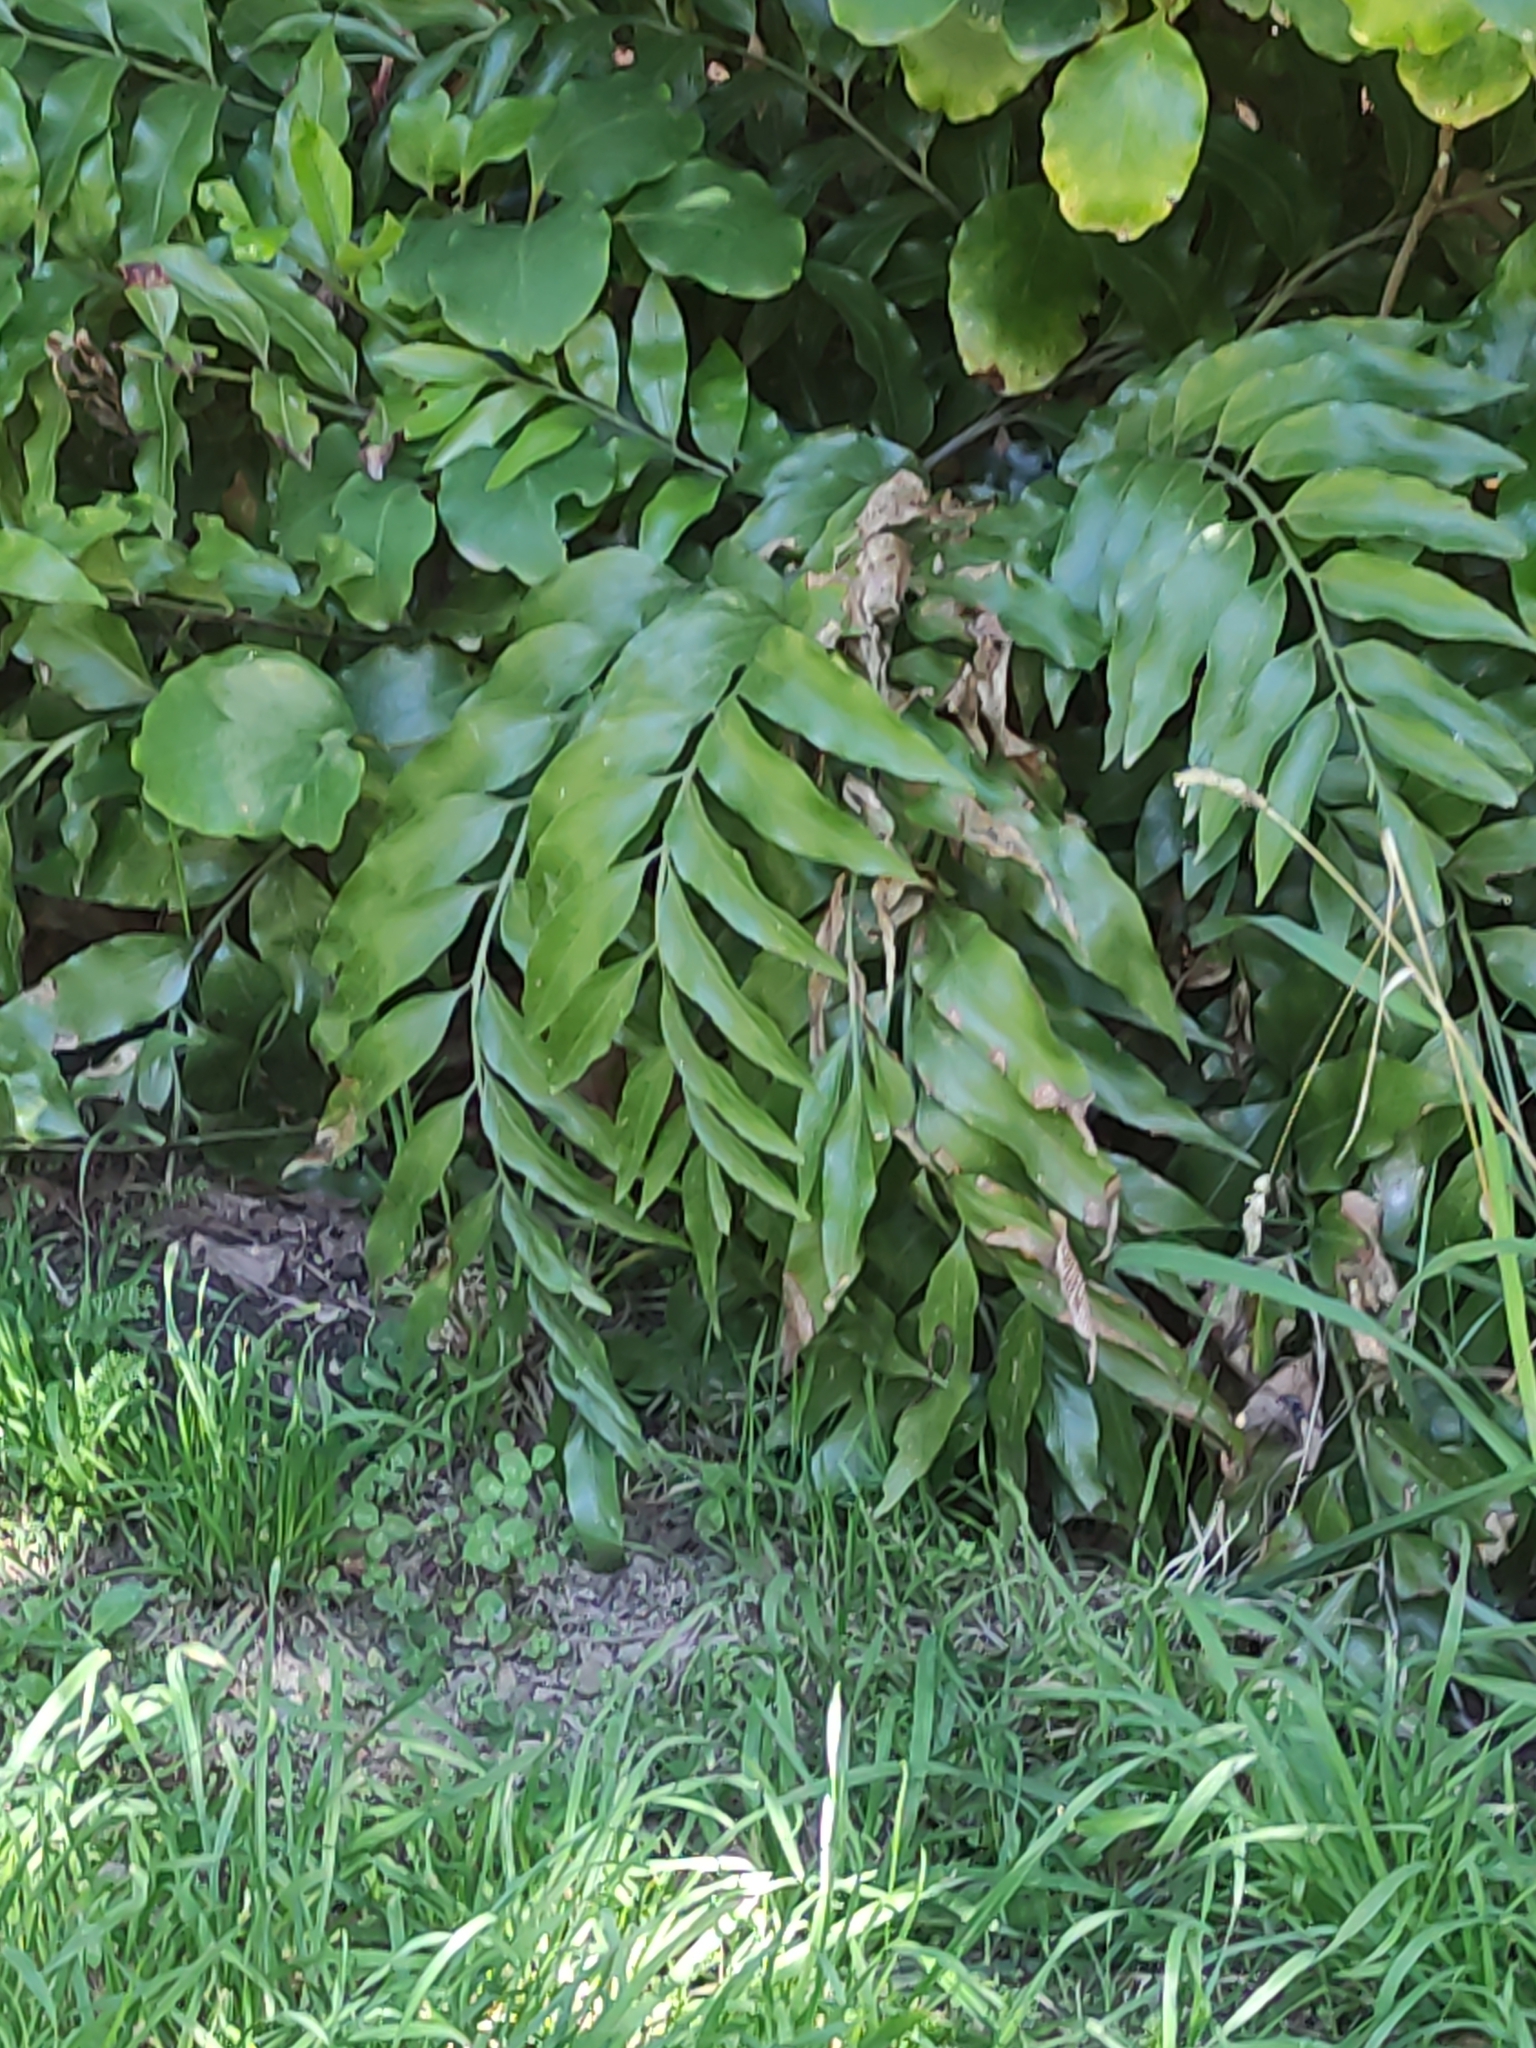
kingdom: Plantae
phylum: Tracheophyta
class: Polypodiopsida
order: Polypodiales
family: Aspleniaceae
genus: Asplenium
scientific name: Asplenium oblongifolium
